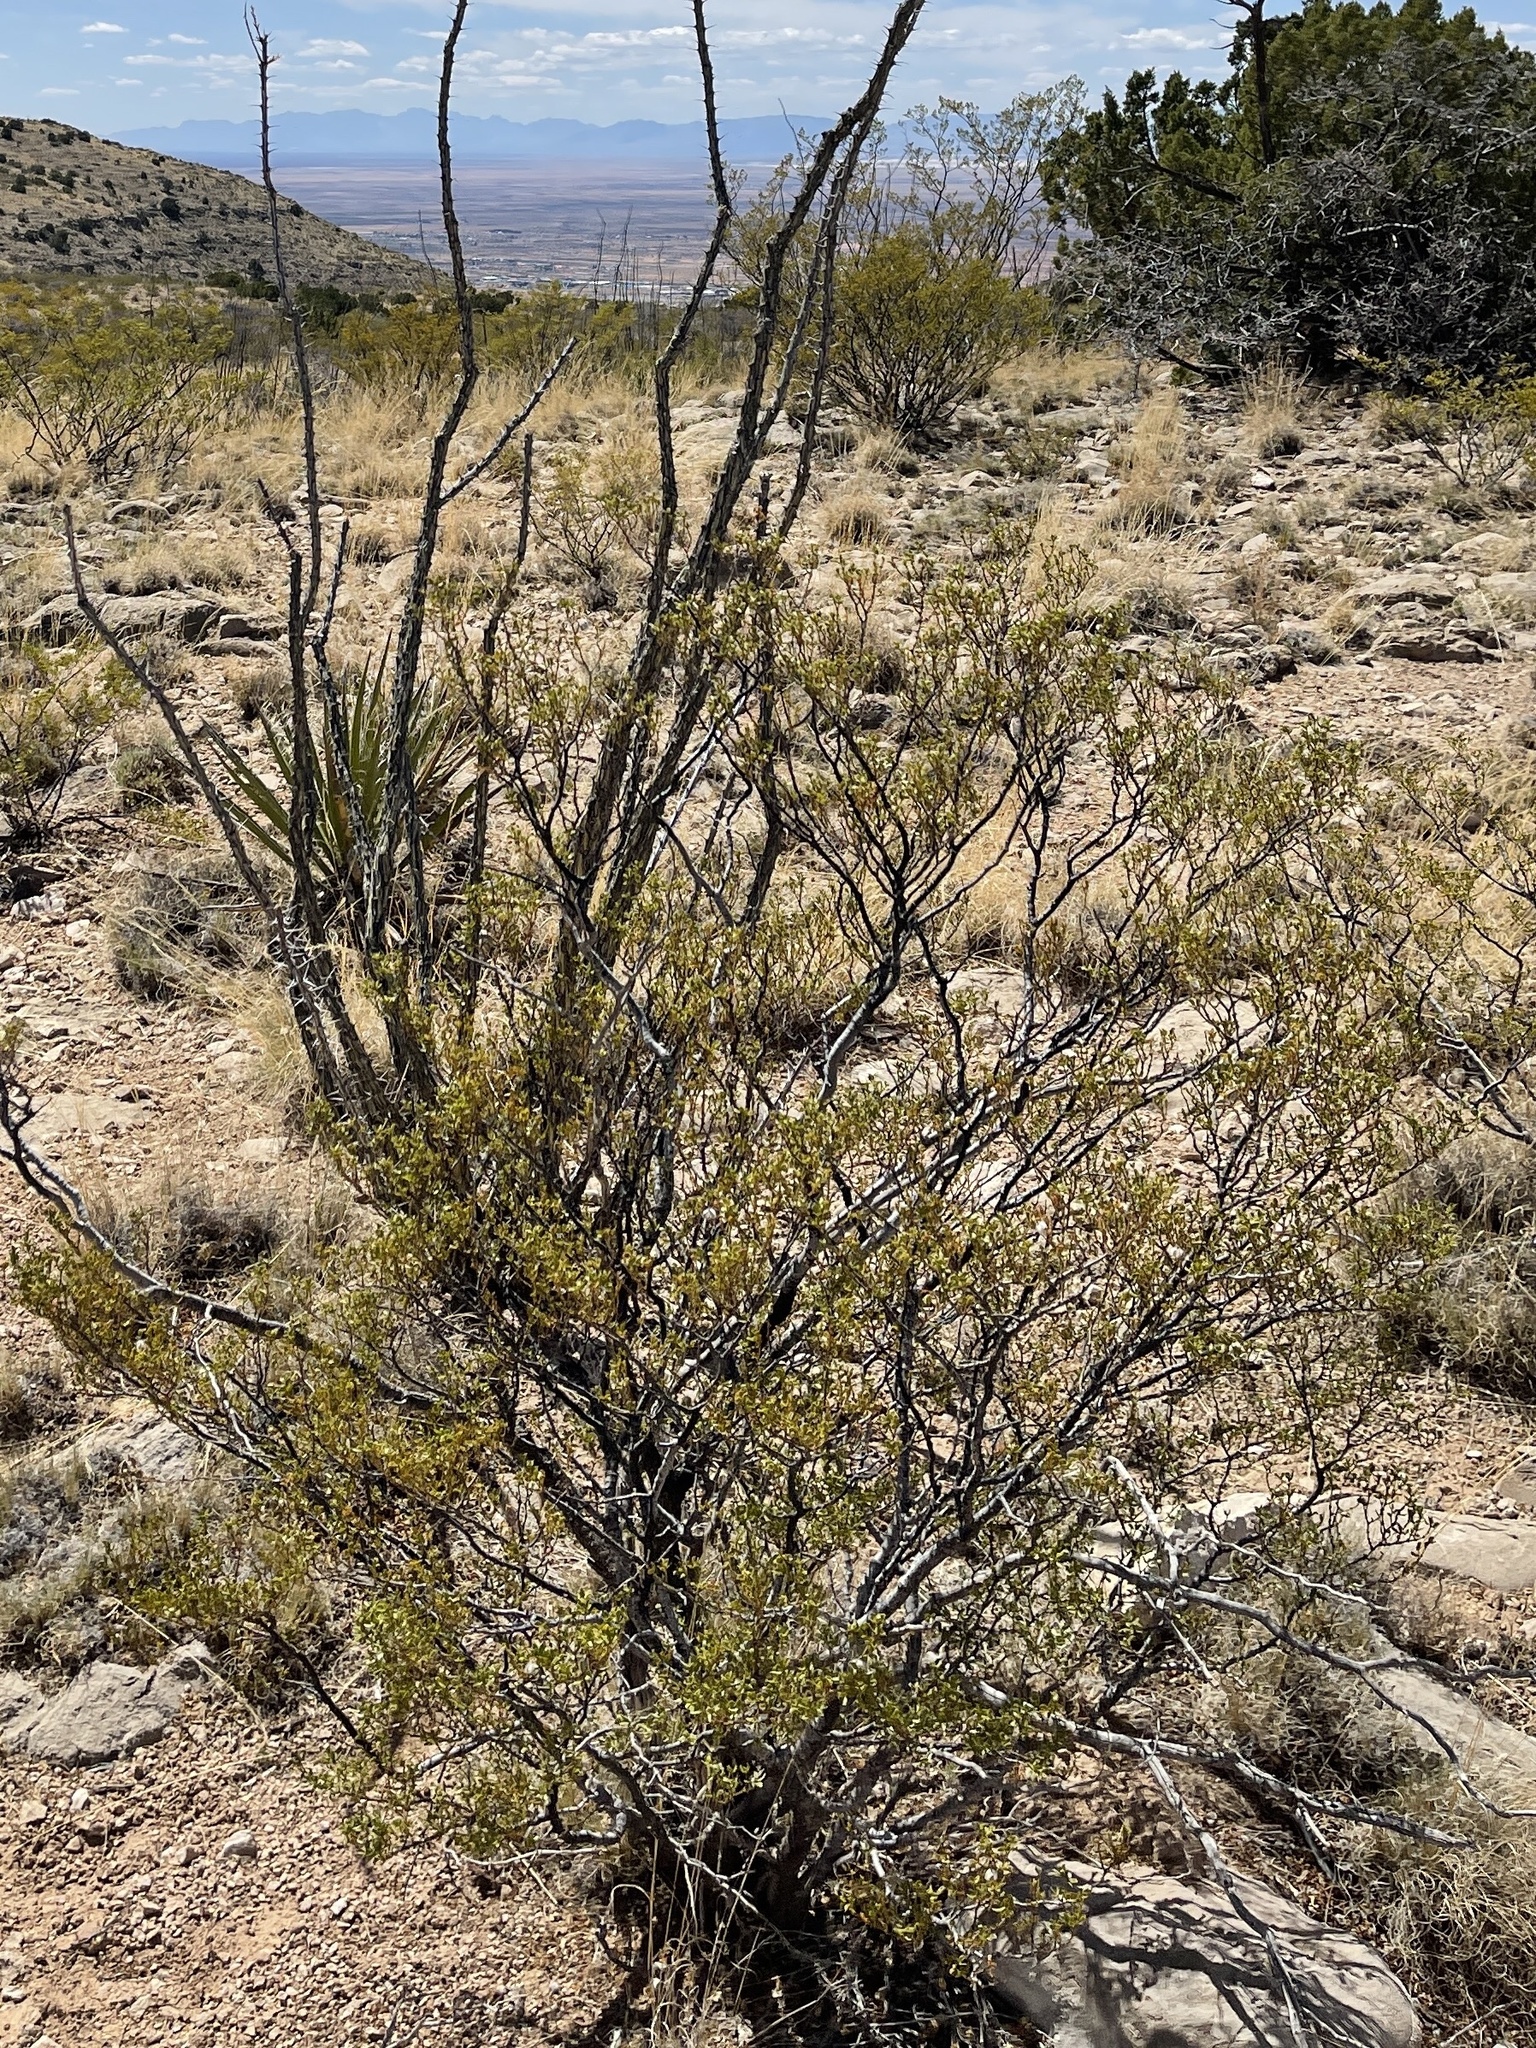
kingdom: Plantae
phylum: Tracheophyta
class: Magnoliopsida
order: Zygophyllales
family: Zygophyllaceae
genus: Larrea
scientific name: Larrea tridentata
